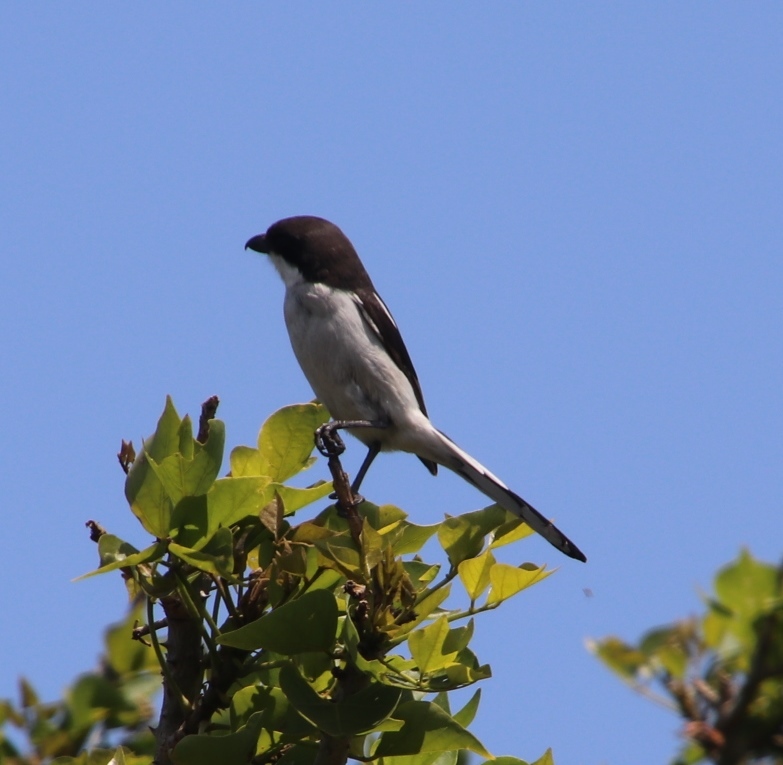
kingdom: Animalia
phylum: Chordata
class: Aves
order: Passeriformes
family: Laniidae
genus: Lanius
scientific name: Lanius collaris
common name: Southern fiscal
